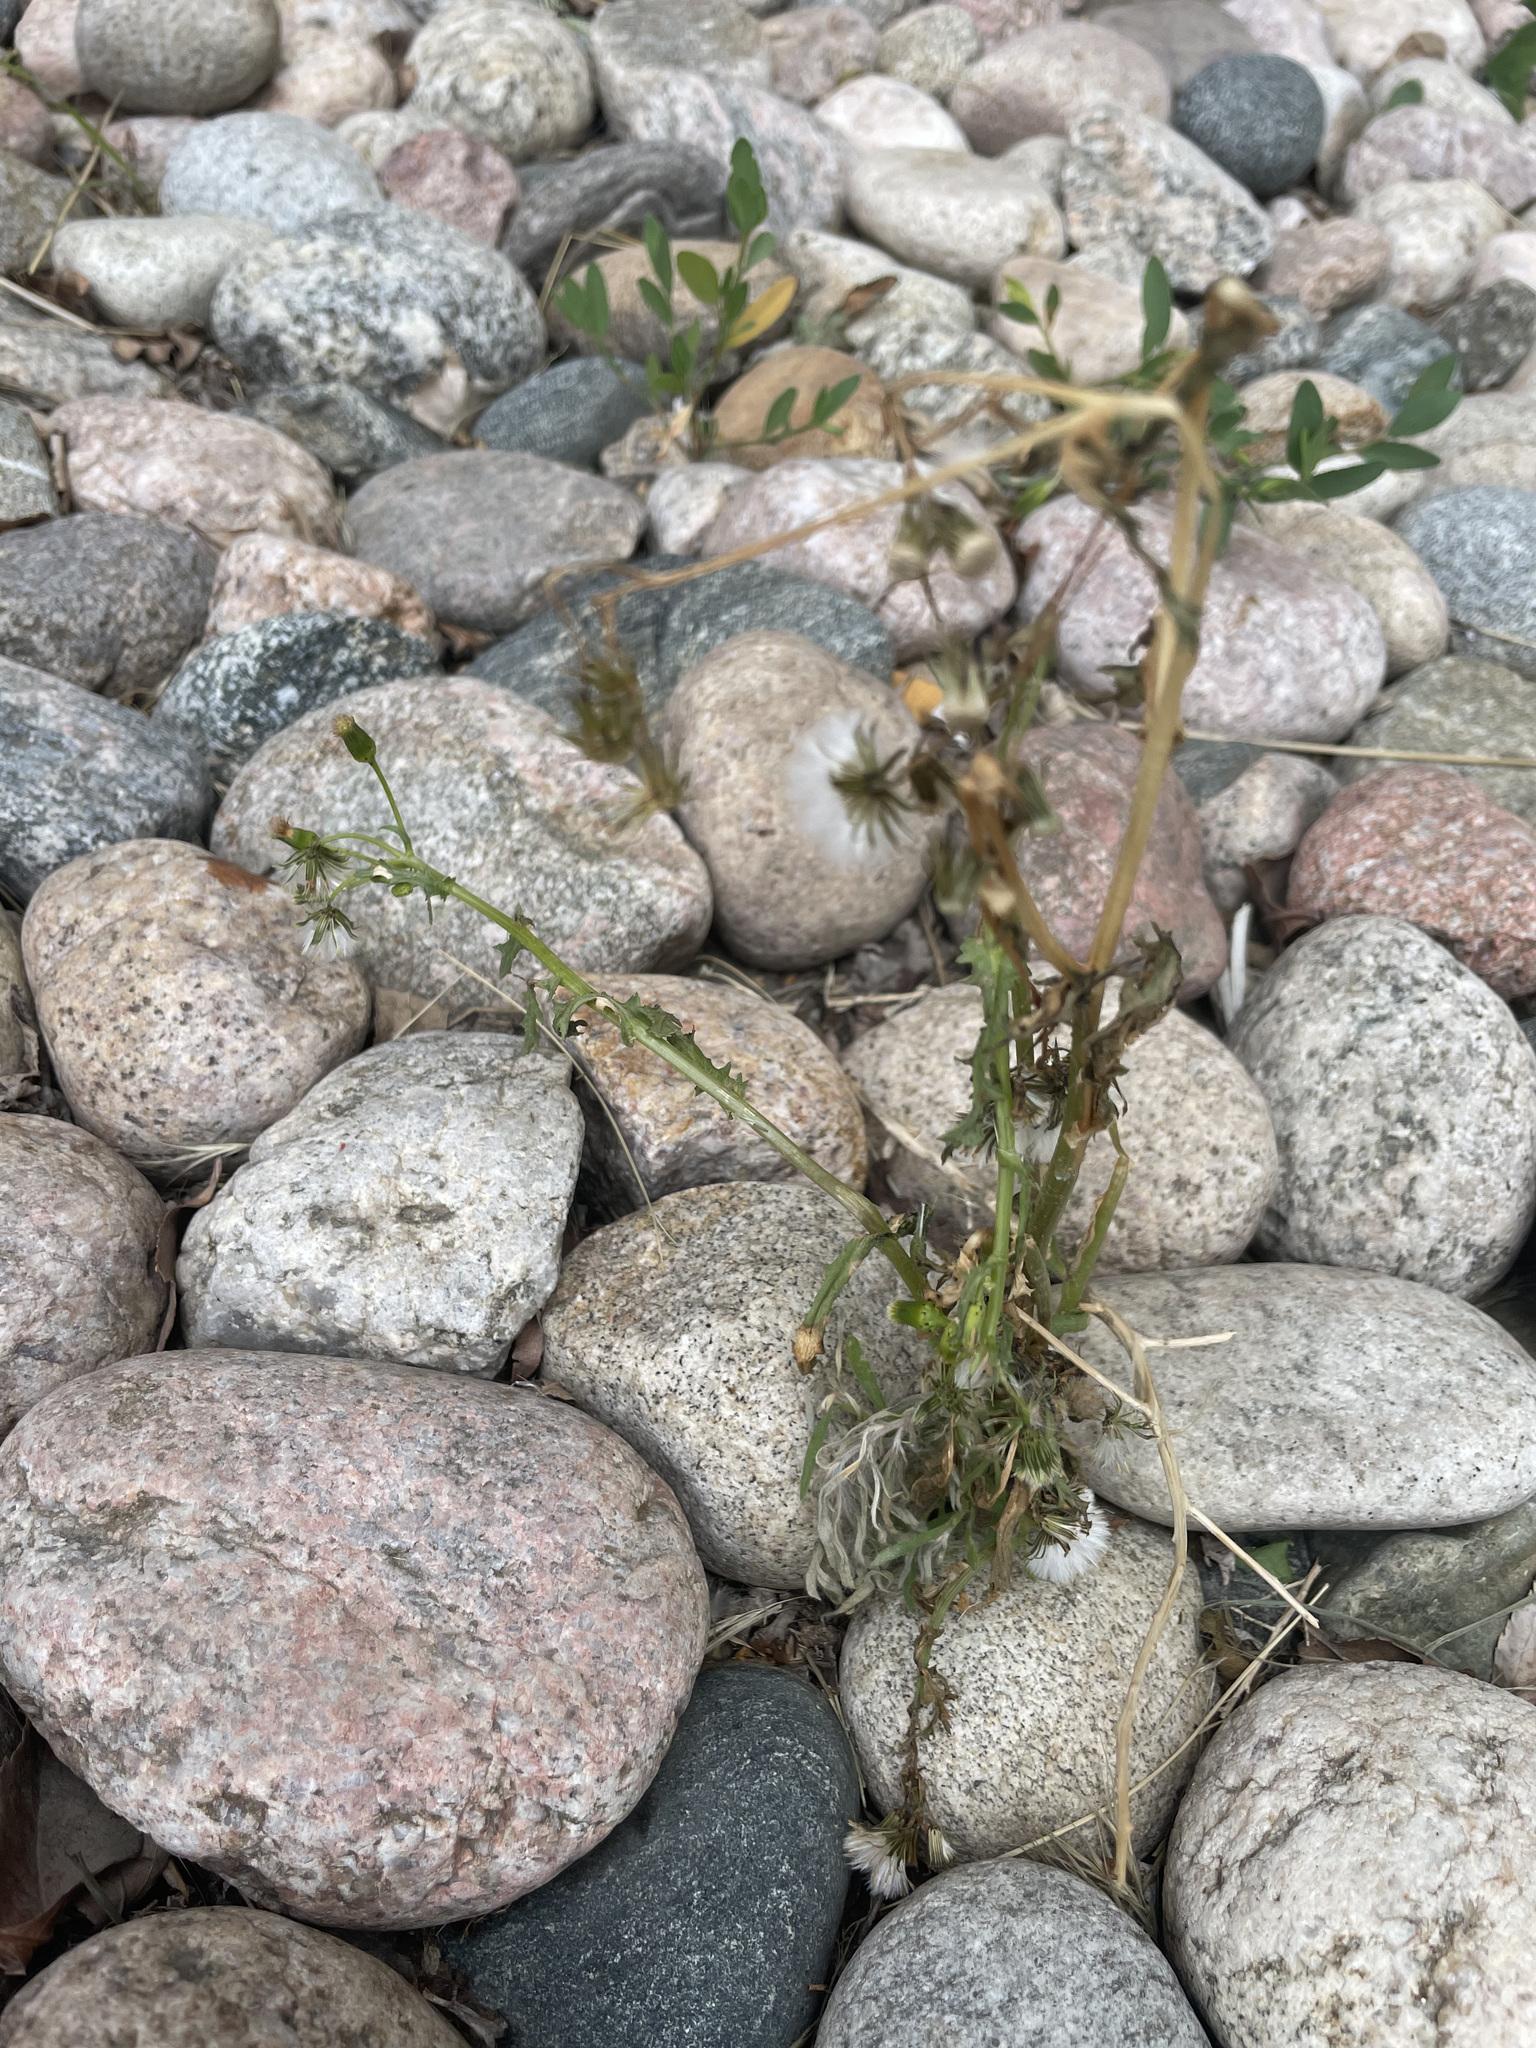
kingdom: Plantae
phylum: Tracheophyta
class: Magnoliopsida
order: Asterales
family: Asteraceae
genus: Senecio
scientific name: Senecio vulgaris
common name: Old-man-in-the-spring
